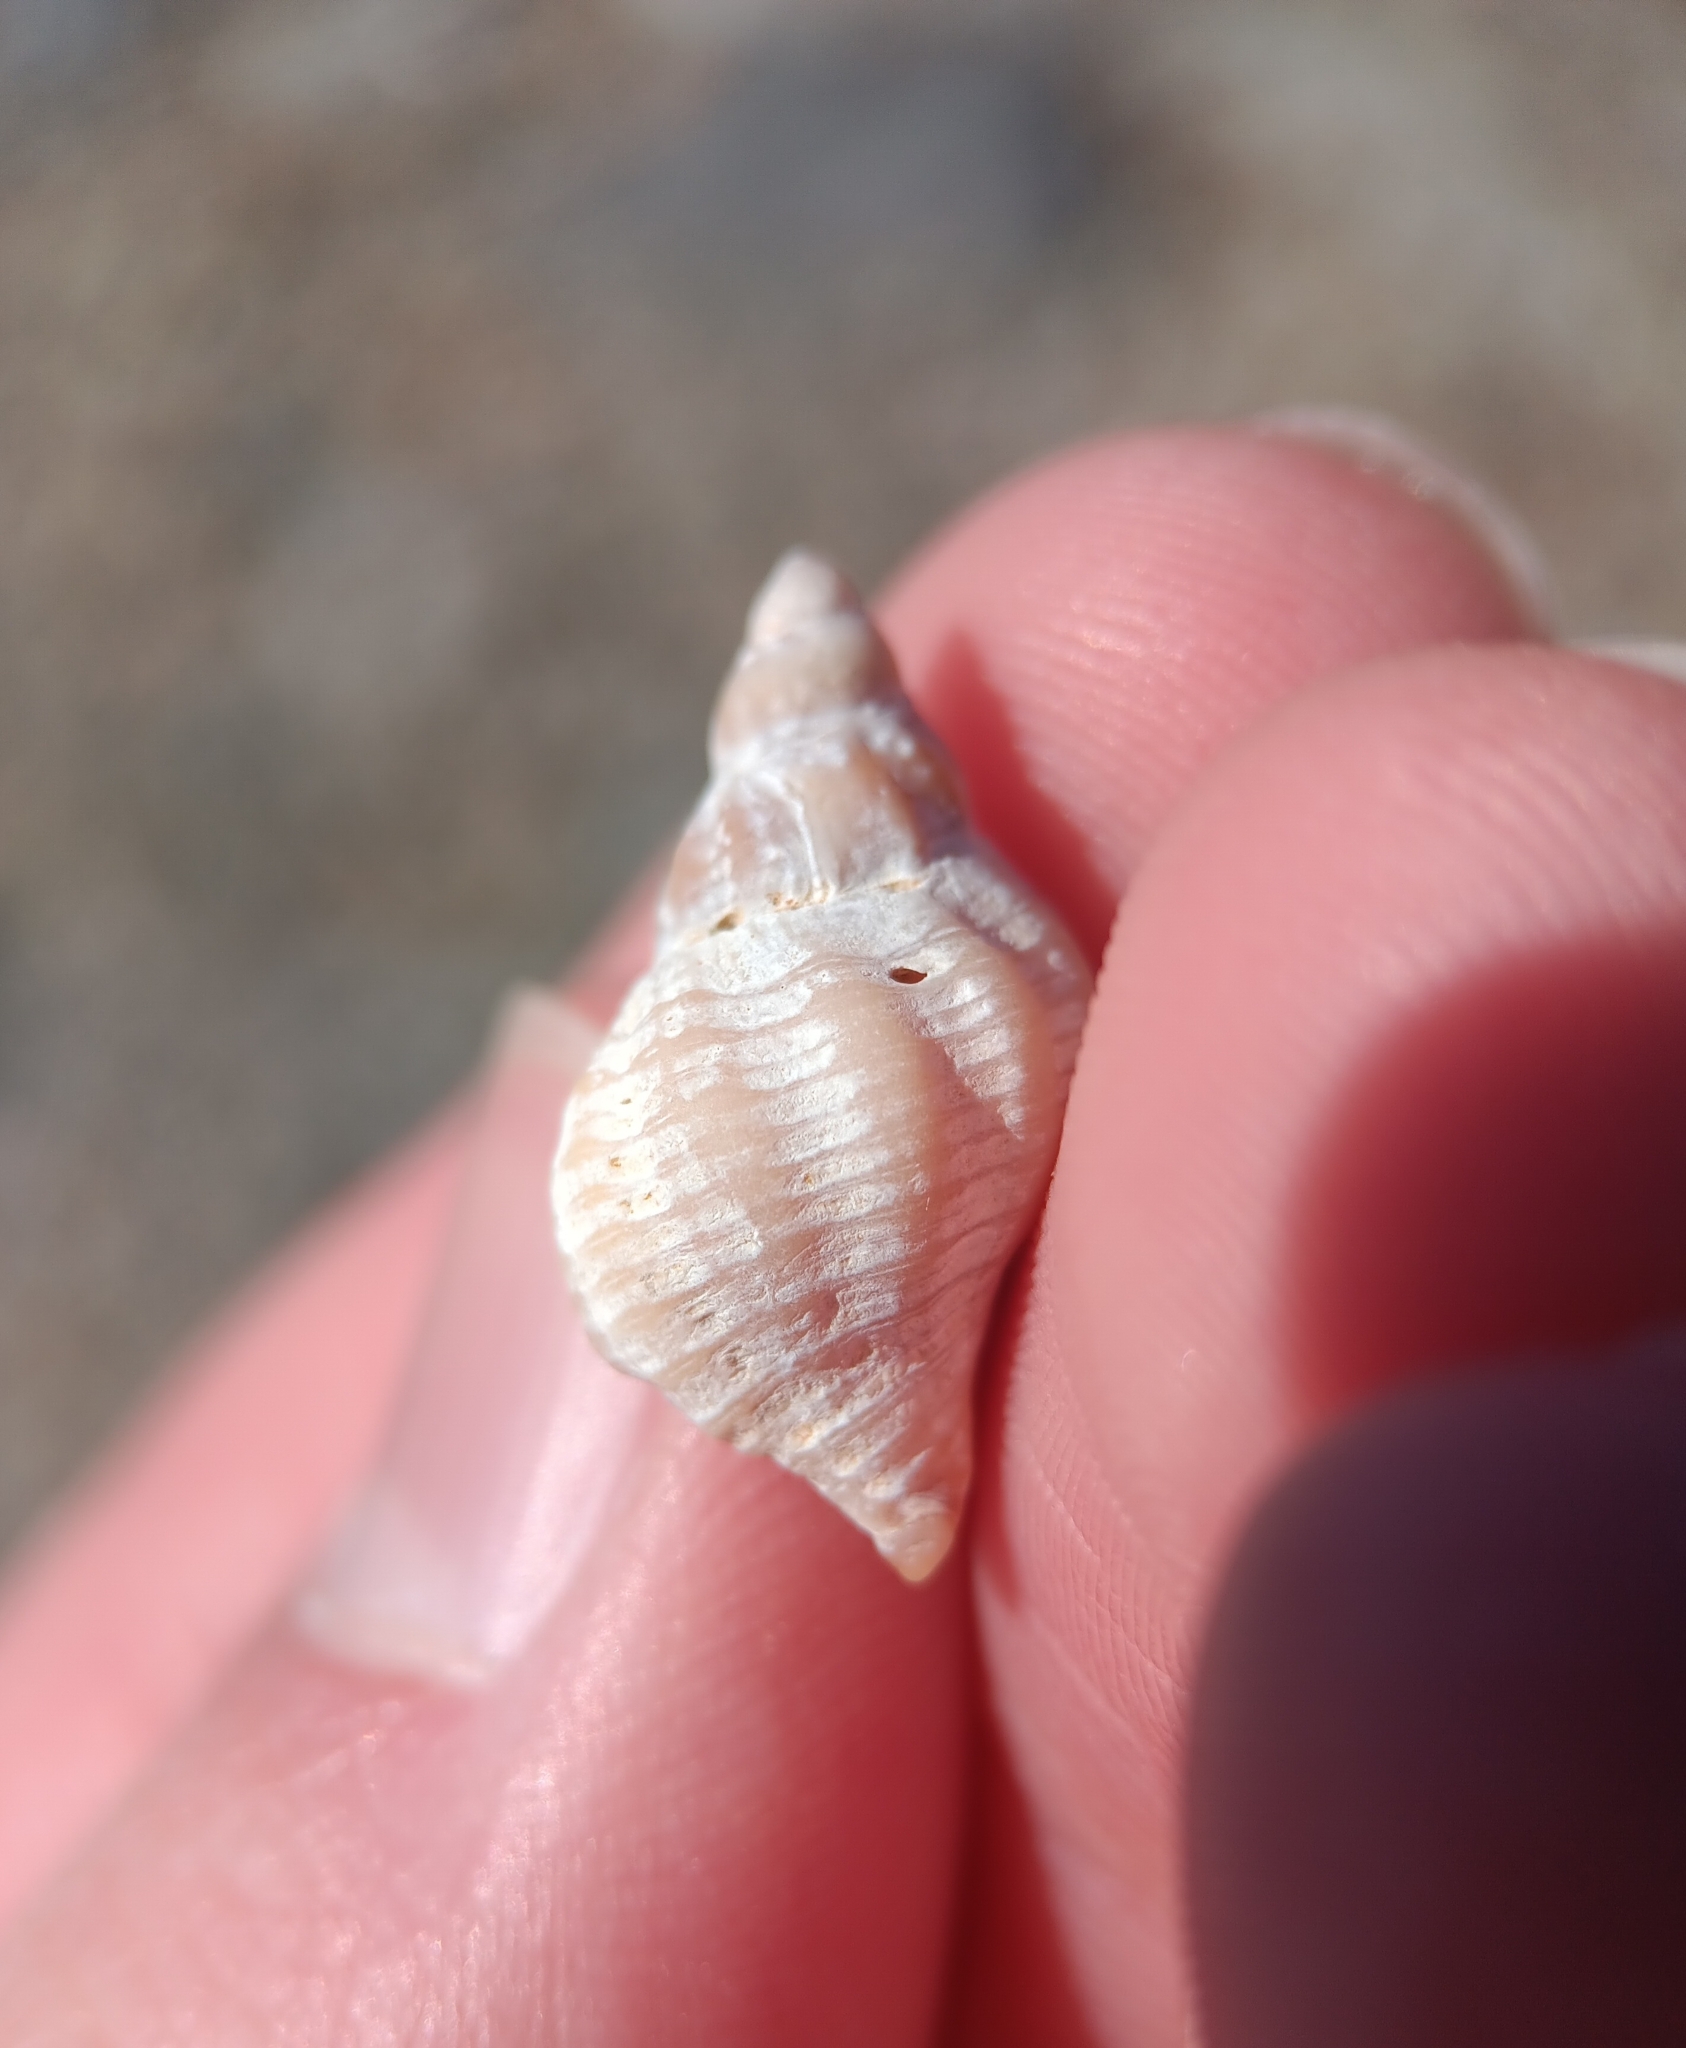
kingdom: Animalia
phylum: Mollusca
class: Gastropoda
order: Neogastropoda
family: Muricidae
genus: Urosalpinx
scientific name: Urosalpinx cinerea
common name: American sting winkle
